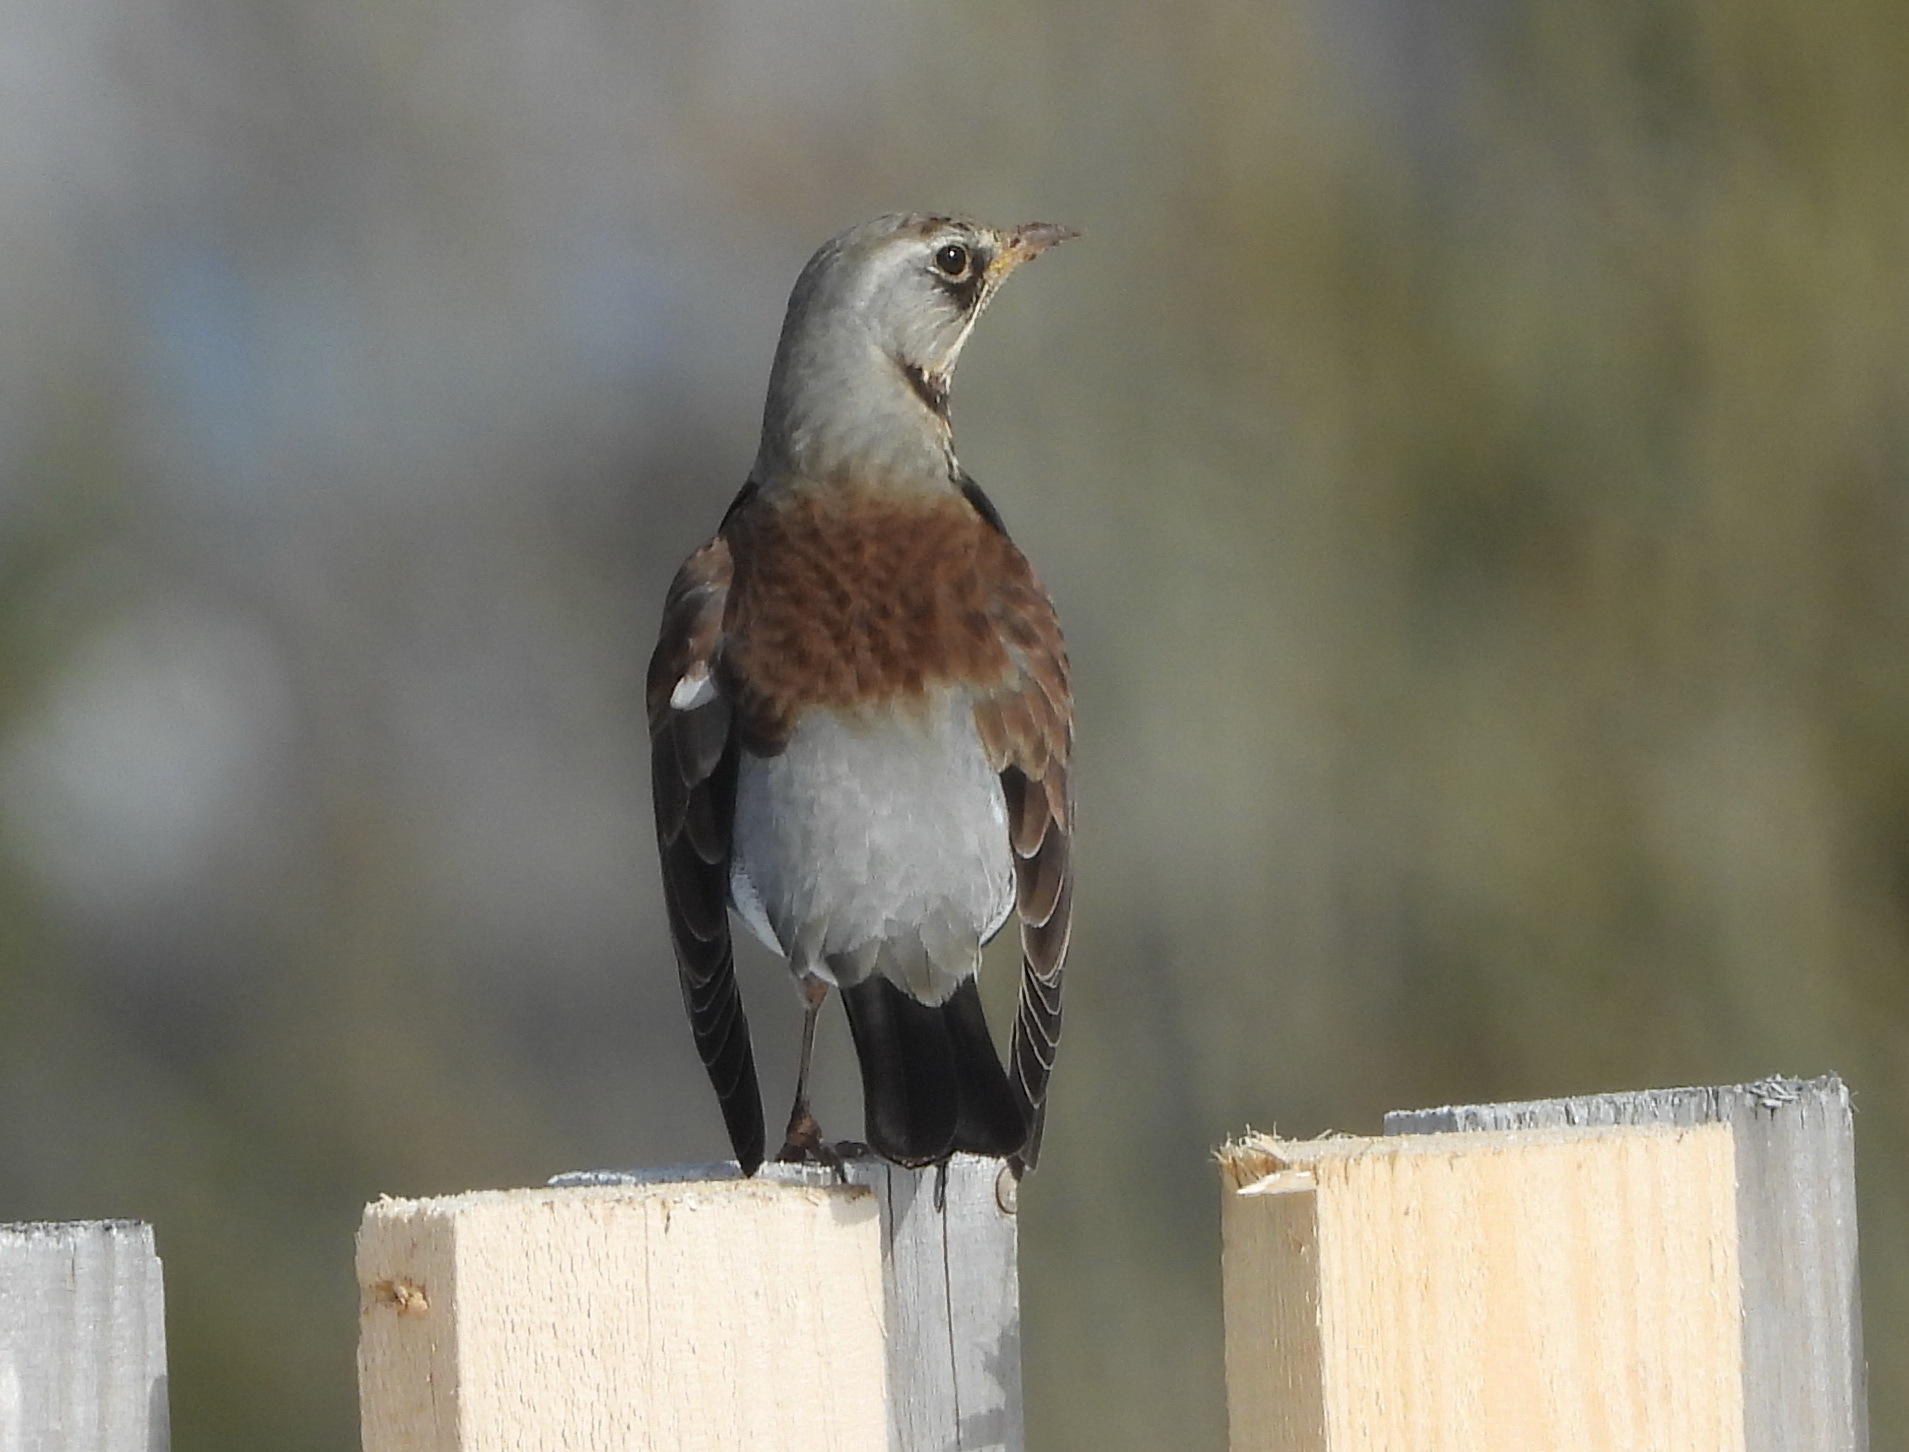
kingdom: Animalia
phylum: Chordata
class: Aves
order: Passeriformes
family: Turdidae
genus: Turdus
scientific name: Turdus pilaris
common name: Fieldfare
